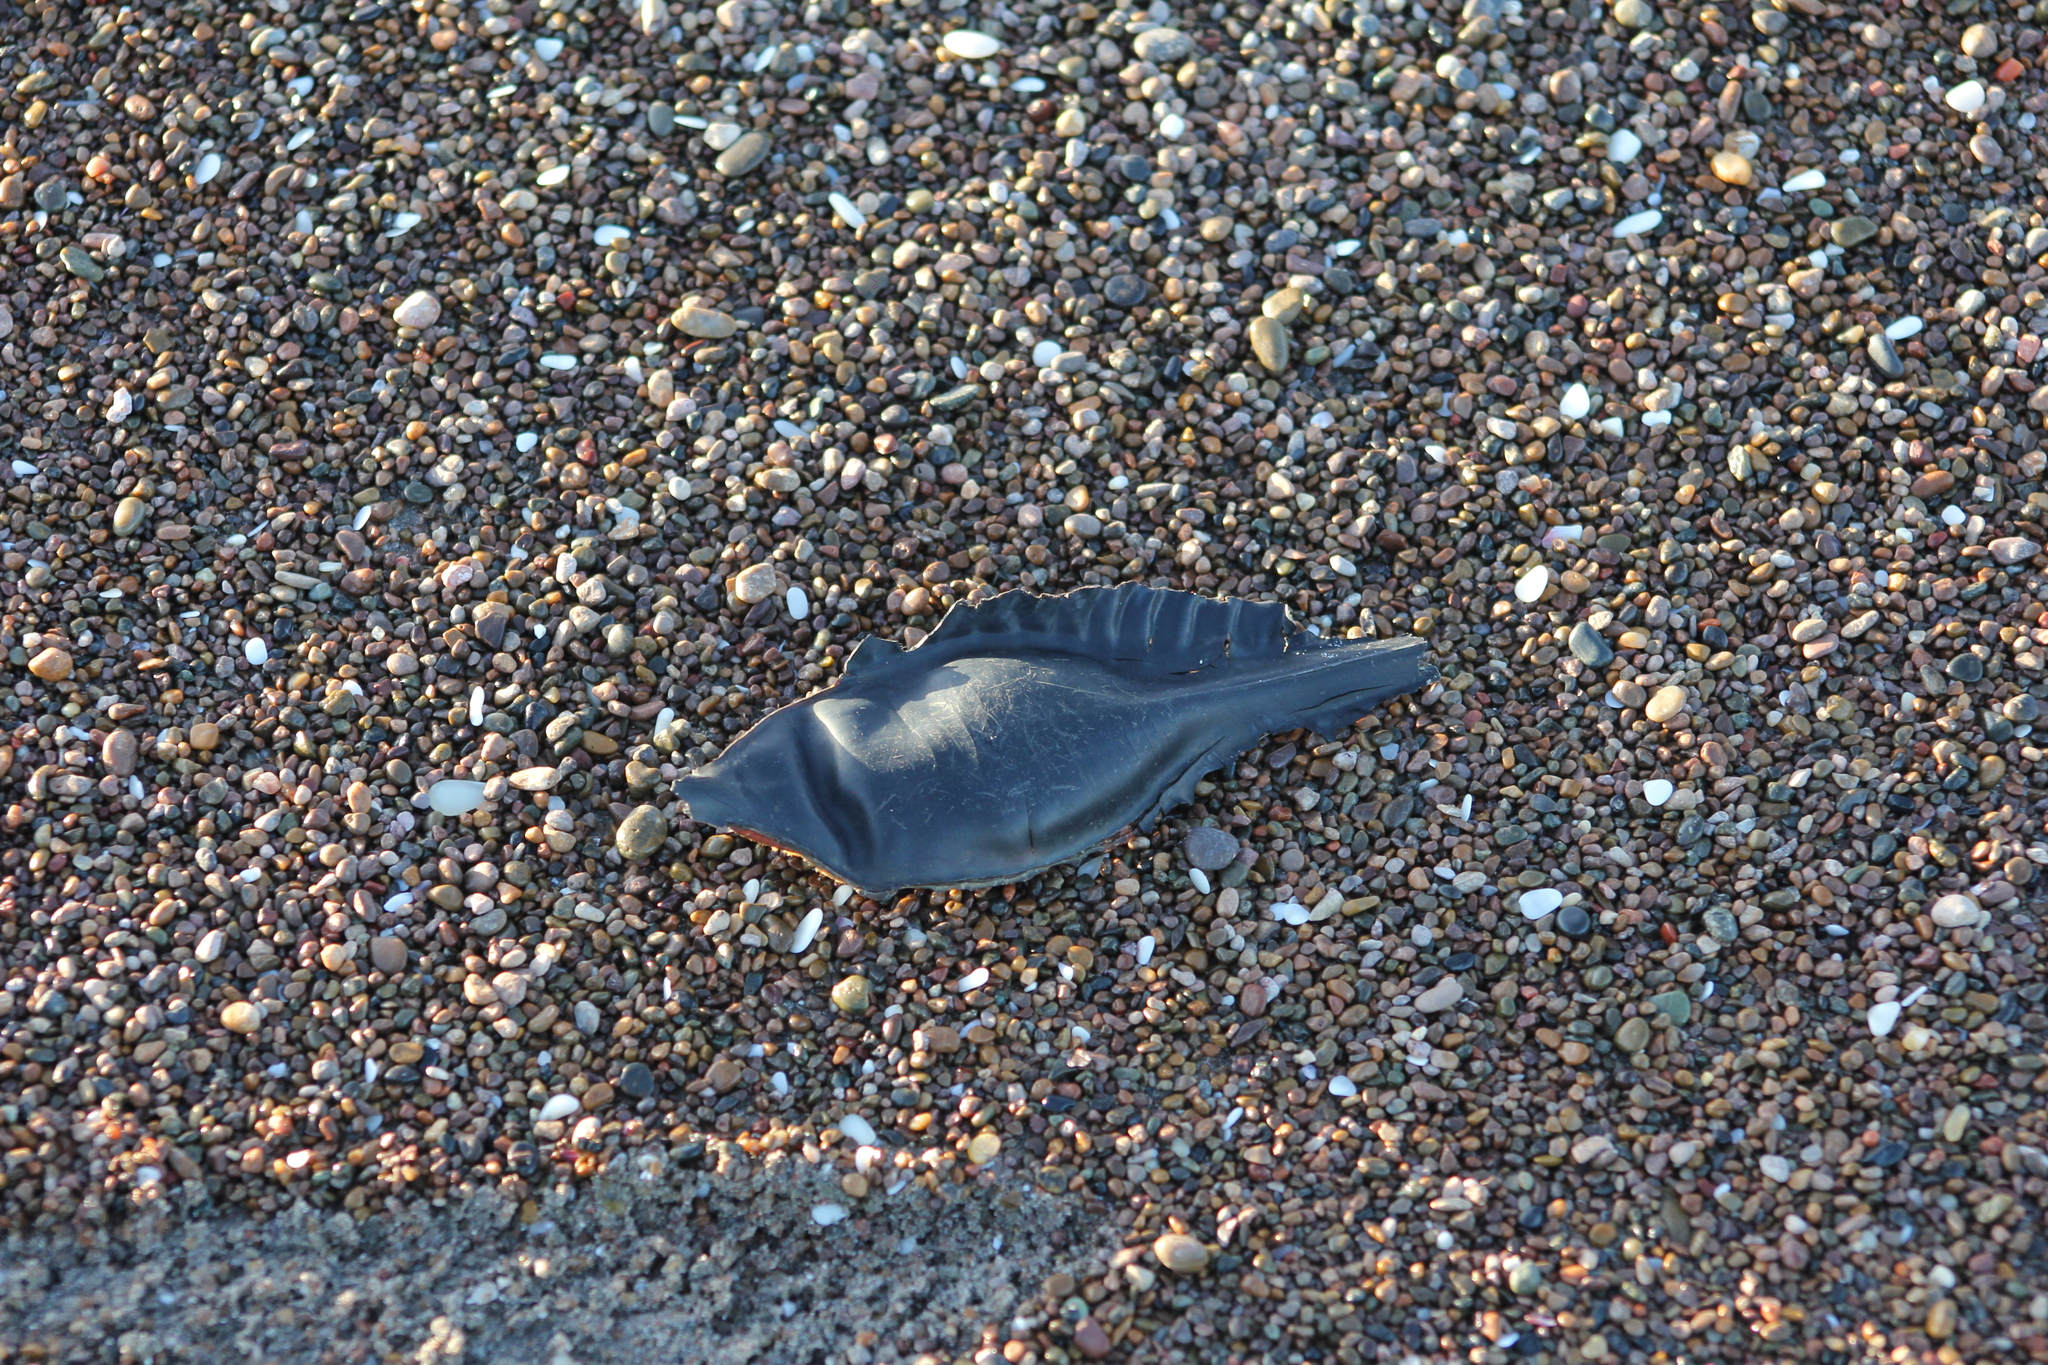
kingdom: Animalia
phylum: Chordata
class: Holocephali
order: Chimaeriformes
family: Callorhinchidae
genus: Callorhinchus
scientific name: Callorhinchus callorynchus
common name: Elephant fish
